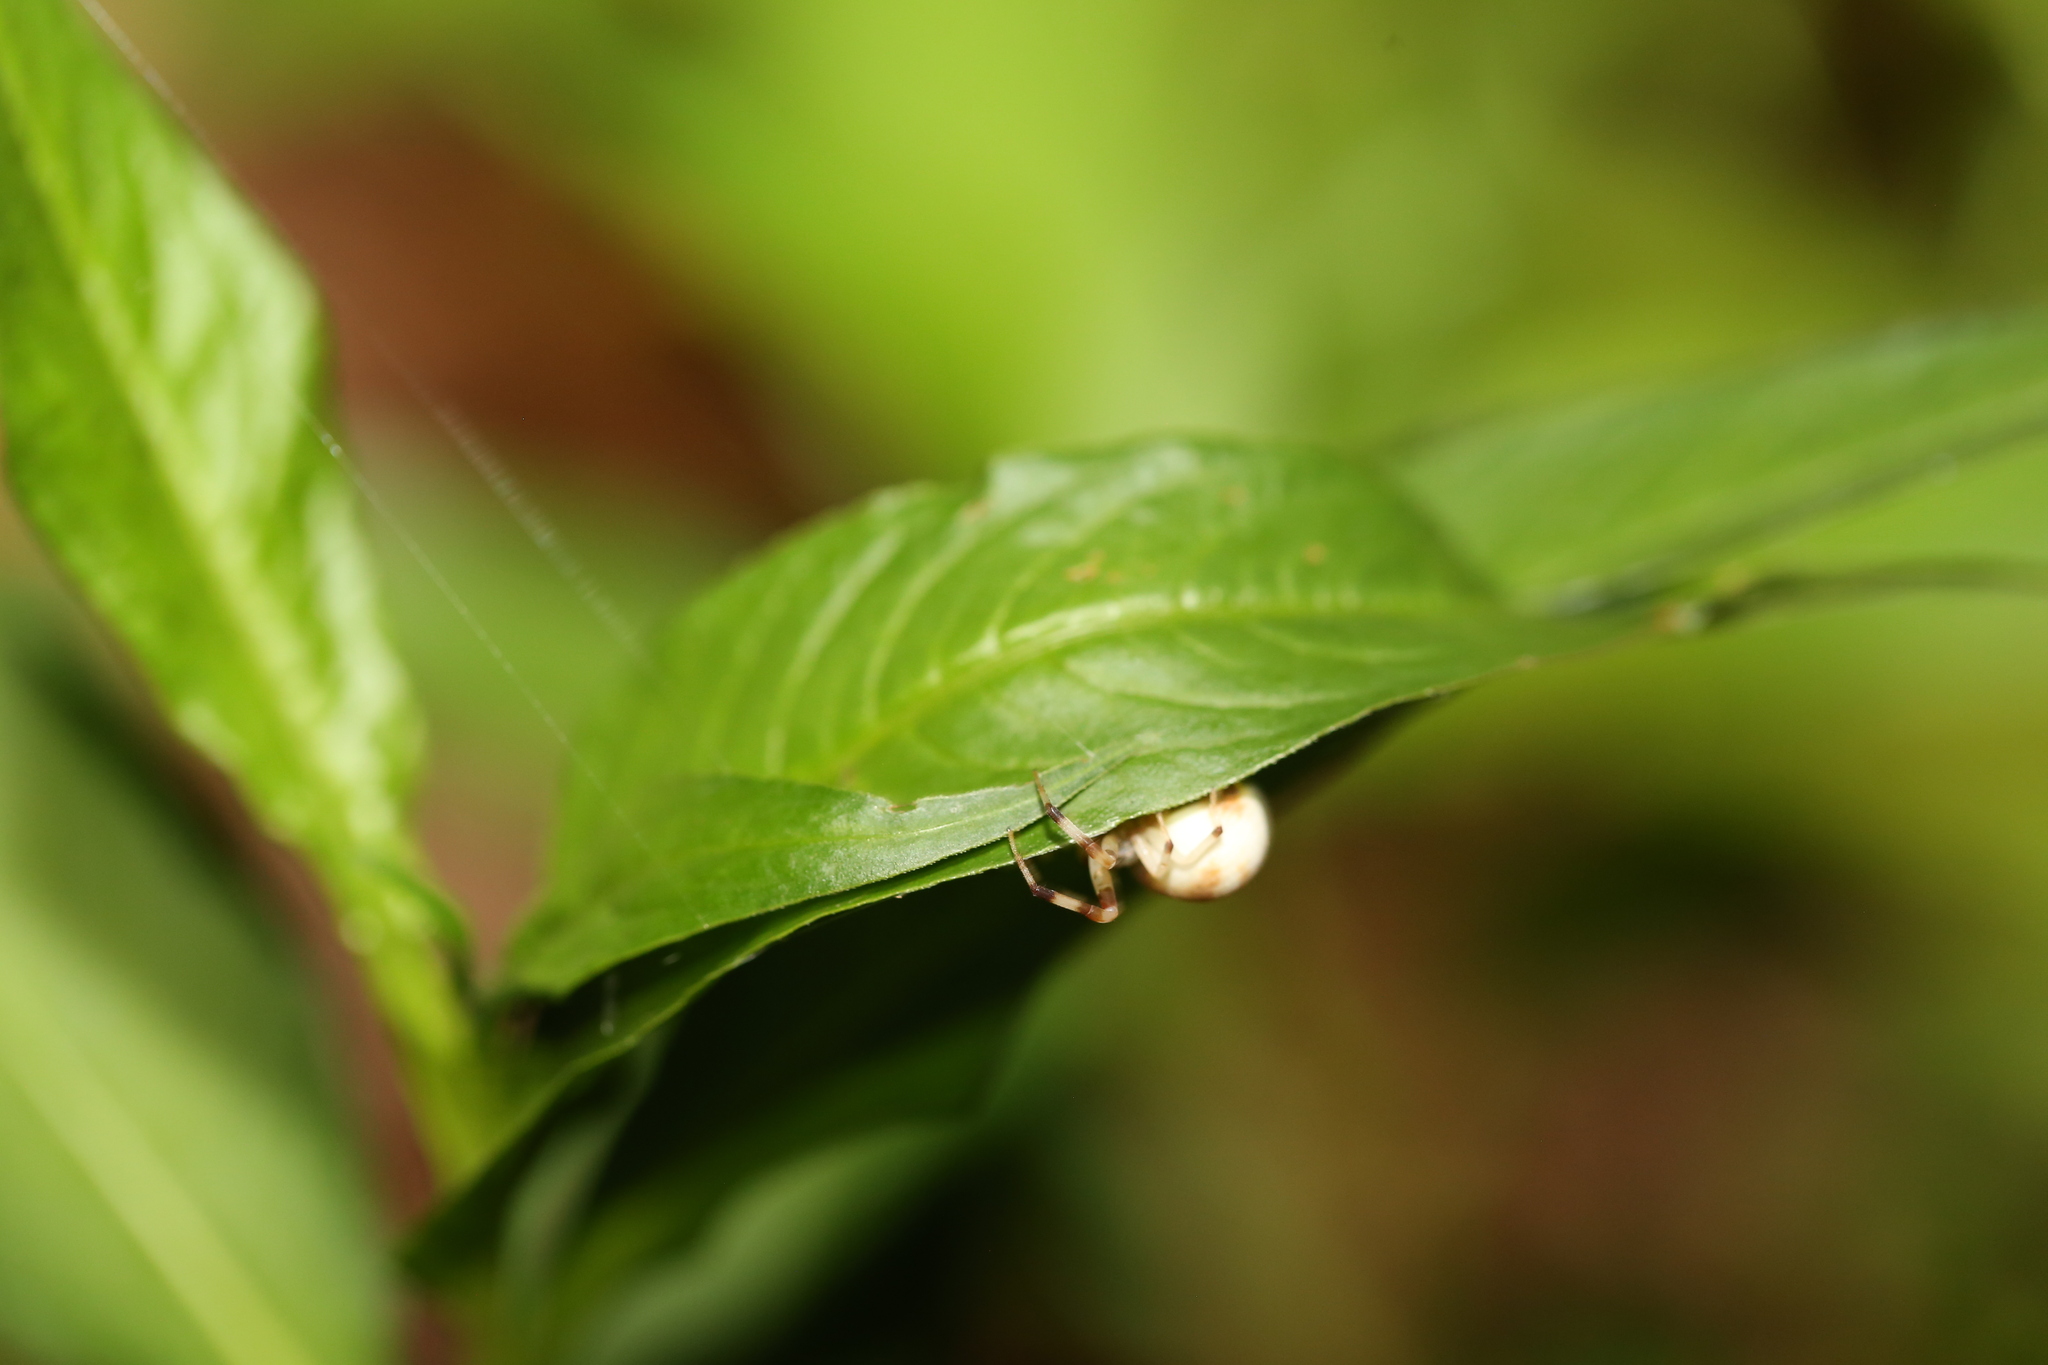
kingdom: Animalia
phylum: Arthropoda
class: Arachnida
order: Araneae
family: Thomisidae
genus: Zygometis
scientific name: Zygometis xanthogaster
